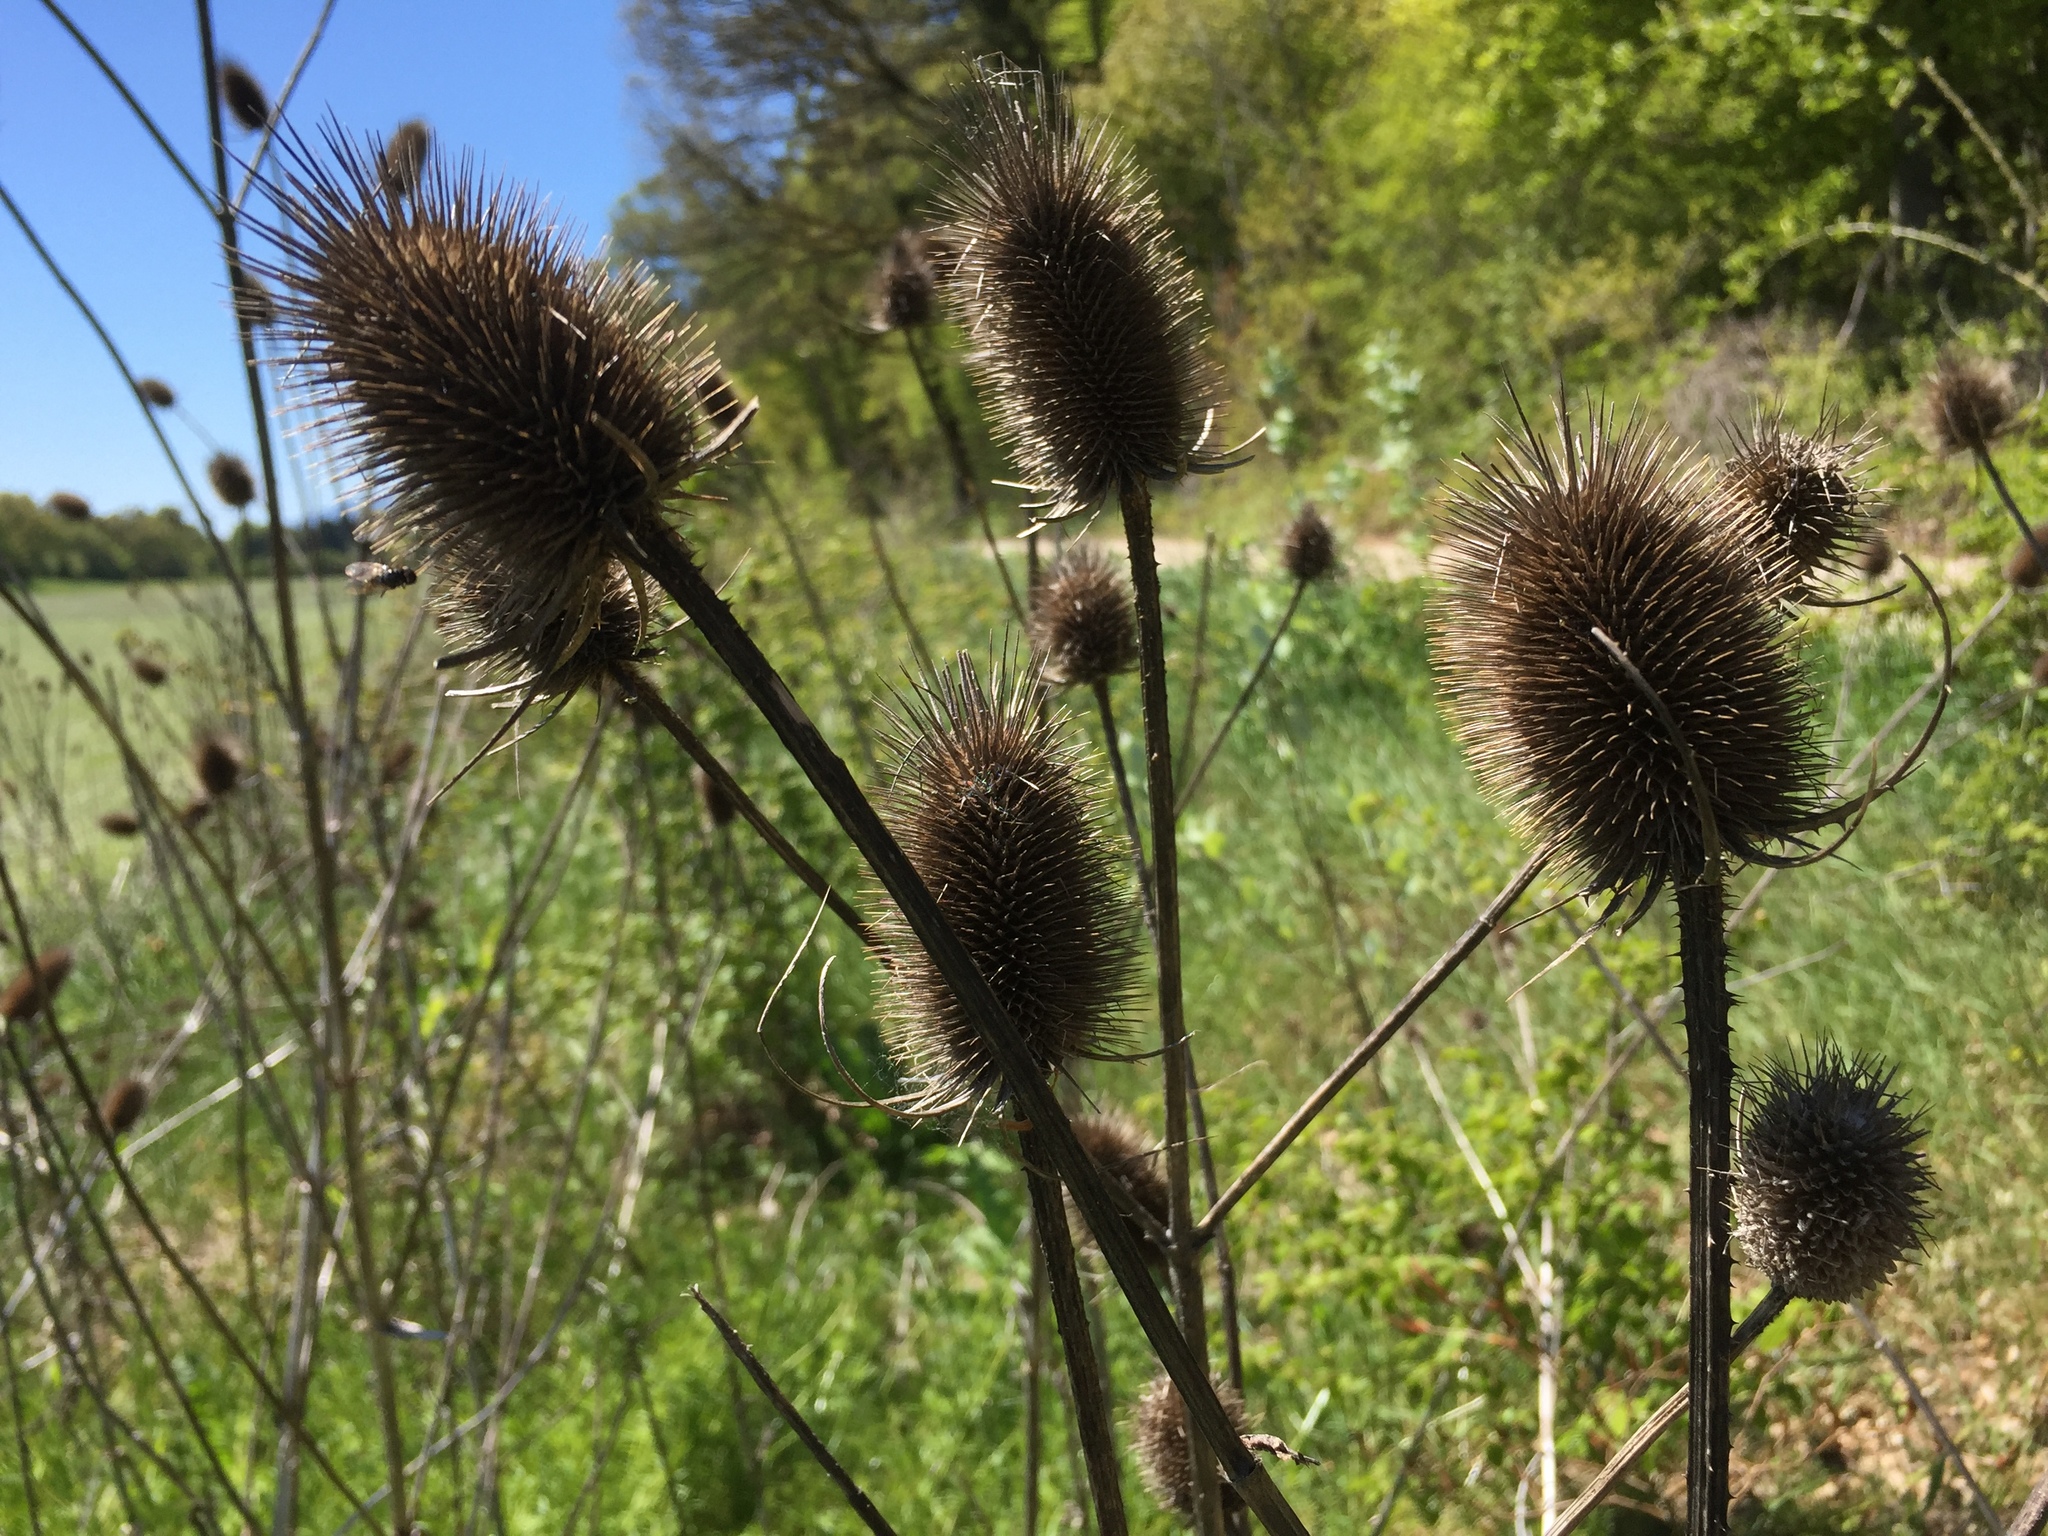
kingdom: Plantae
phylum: Tracheophyta
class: Magnoliopsida
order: Dipsacales
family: Caprifoliaceae
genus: Dipsacus
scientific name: Dipsacus fullonum
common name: Teasel
